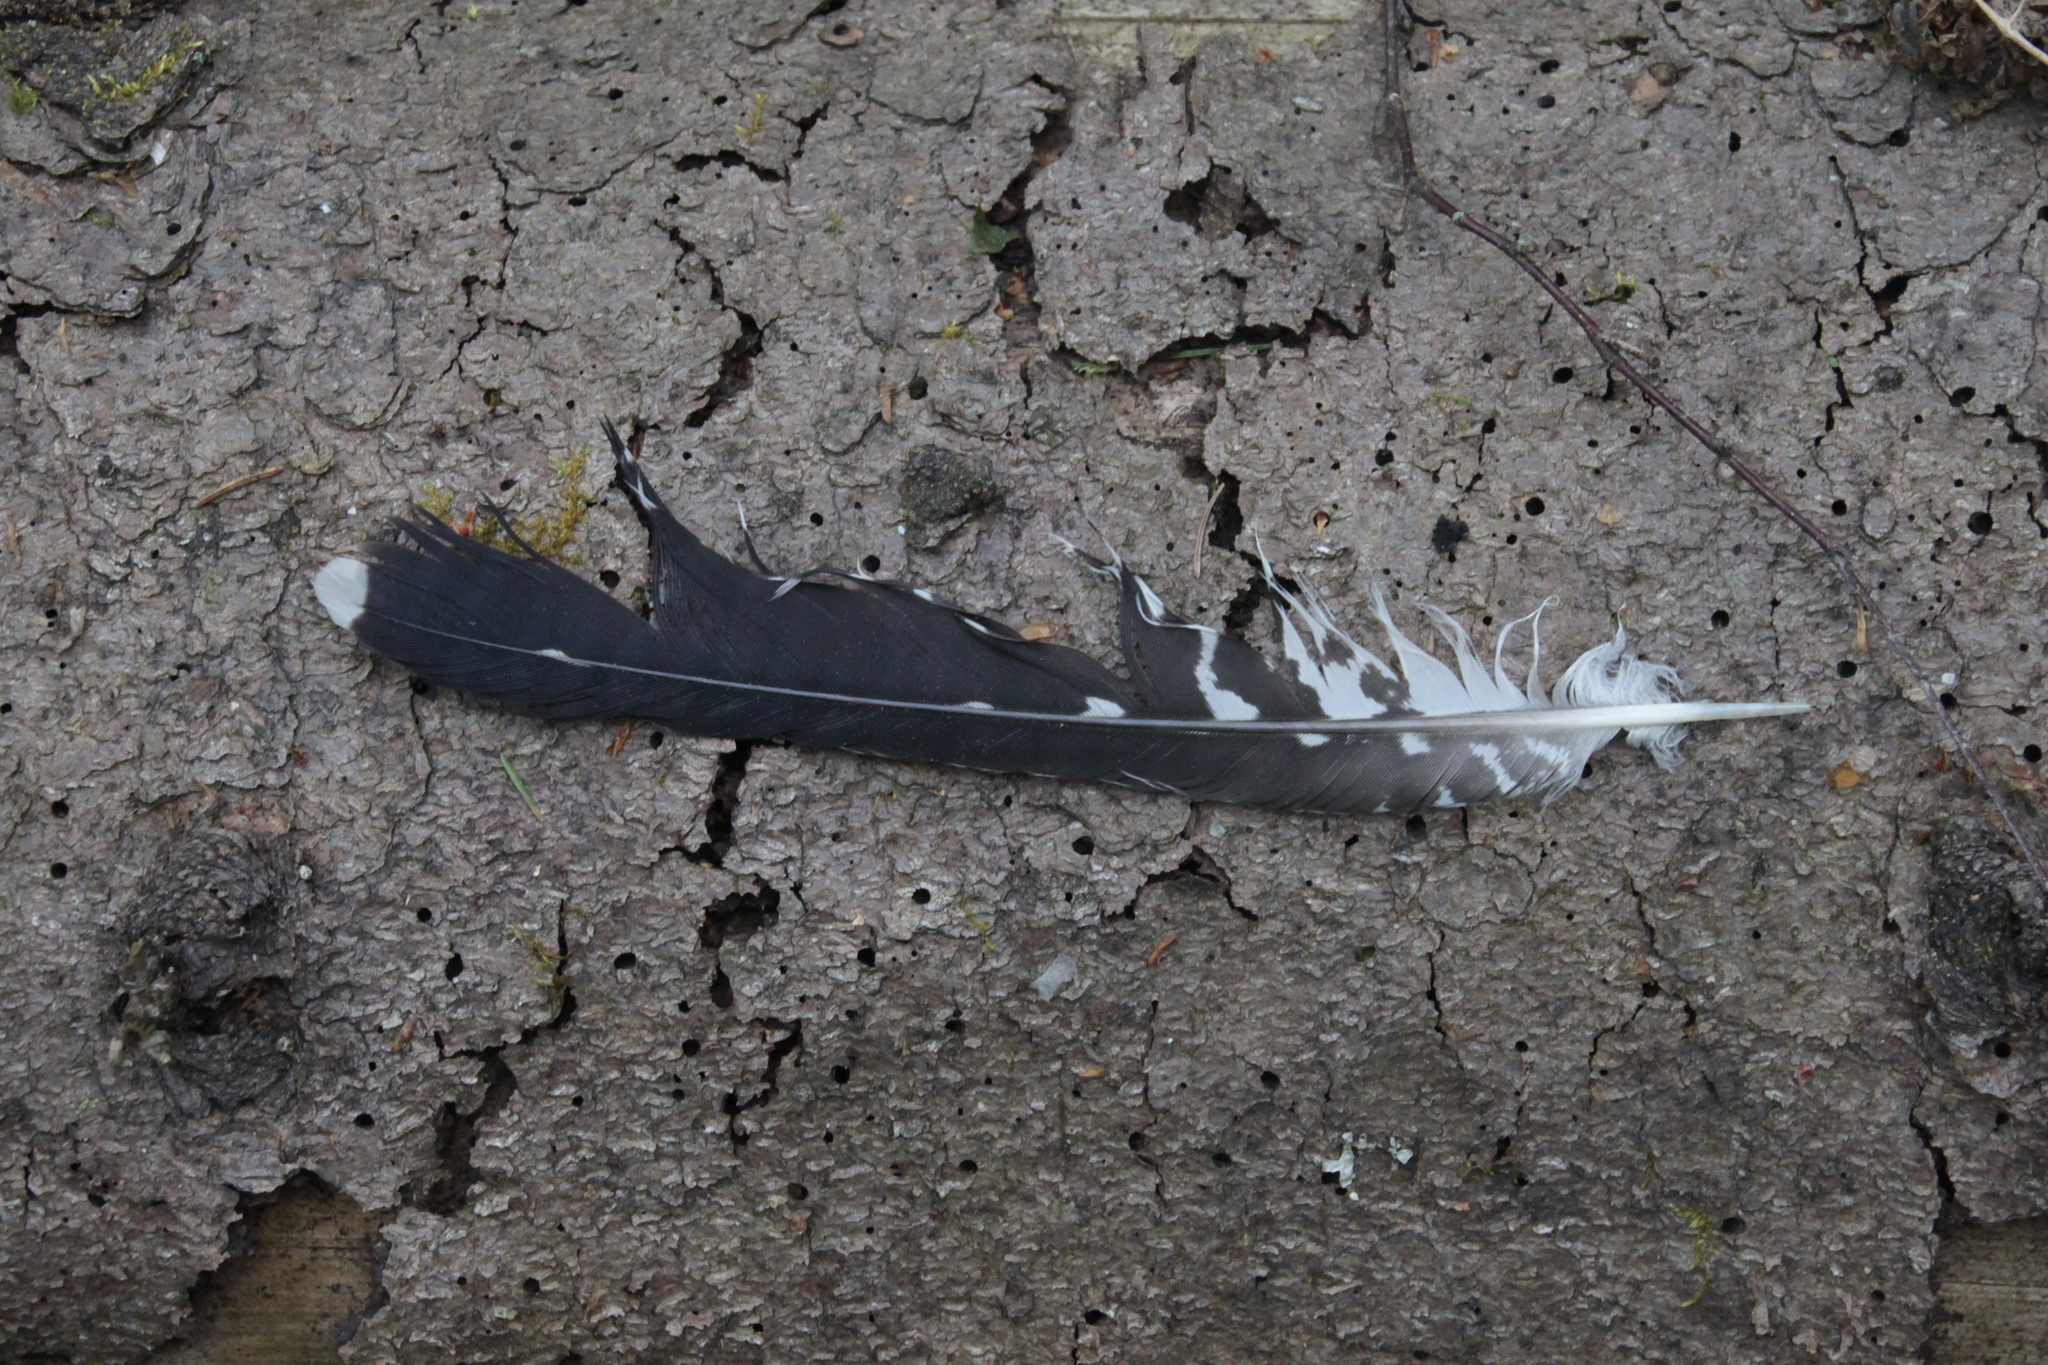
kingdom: Animalia
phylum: Chordata
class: Aves
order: Cuculiformes
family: Cuculidae
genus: Cuculus
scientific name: Cuculus canorus
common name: Common cuckoo
